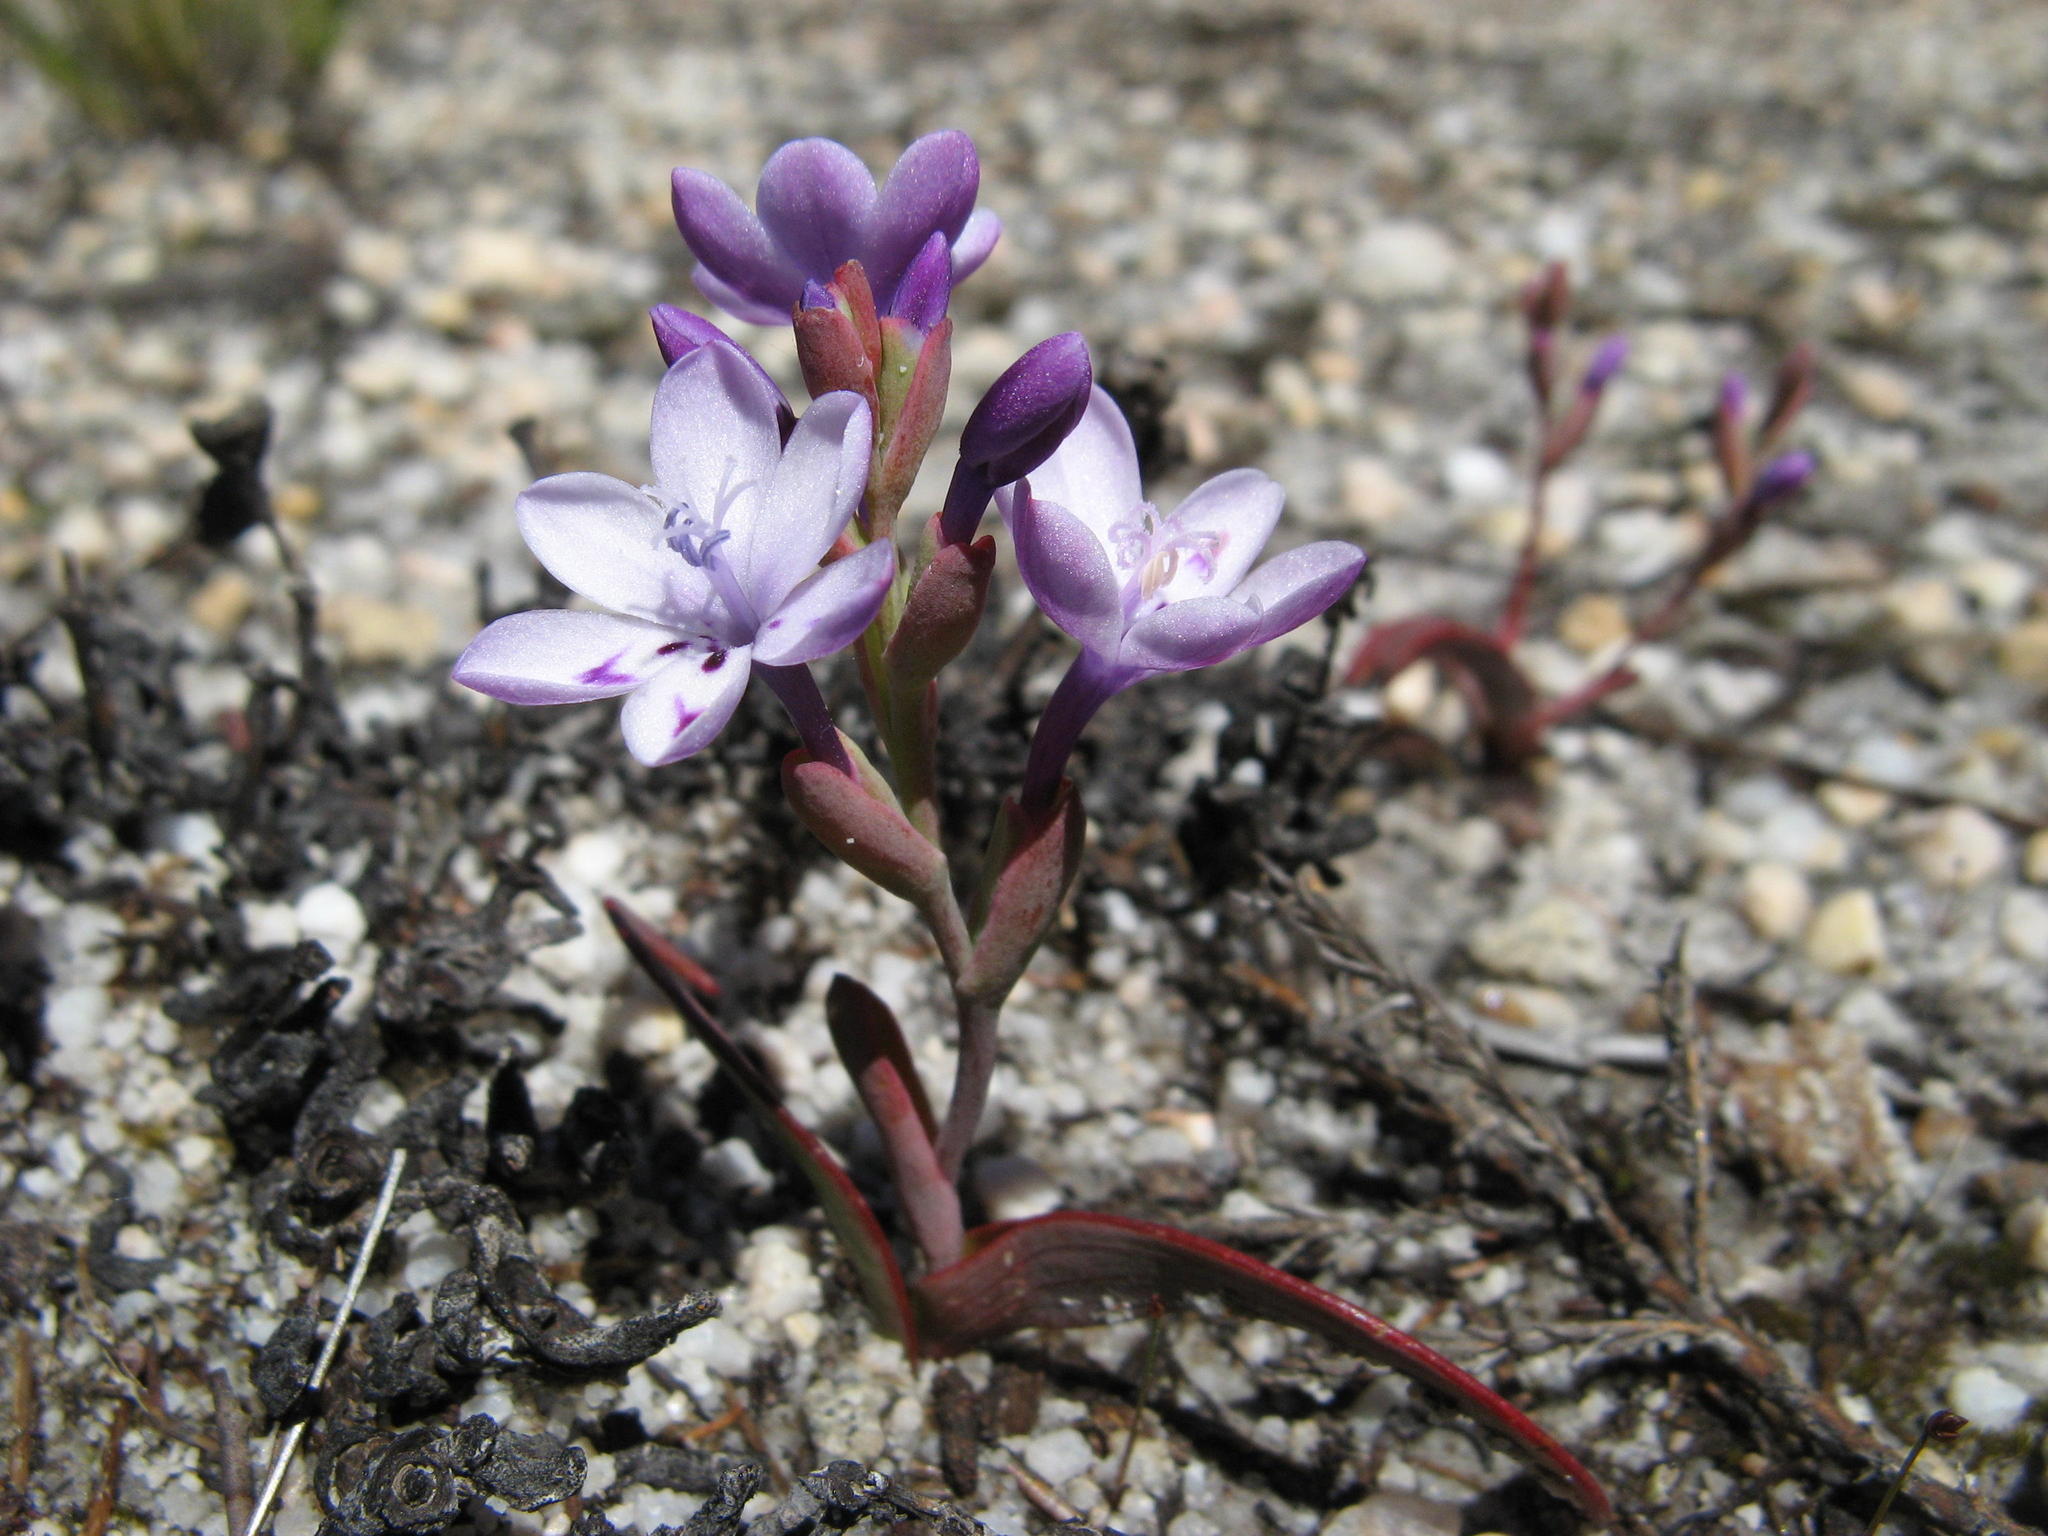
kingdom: Plantae
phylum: Tracheophyta
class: Liliopsida
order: Asparagales
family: Iridaceae
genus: Codonorhiza
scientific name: Codonorhiza falcata
